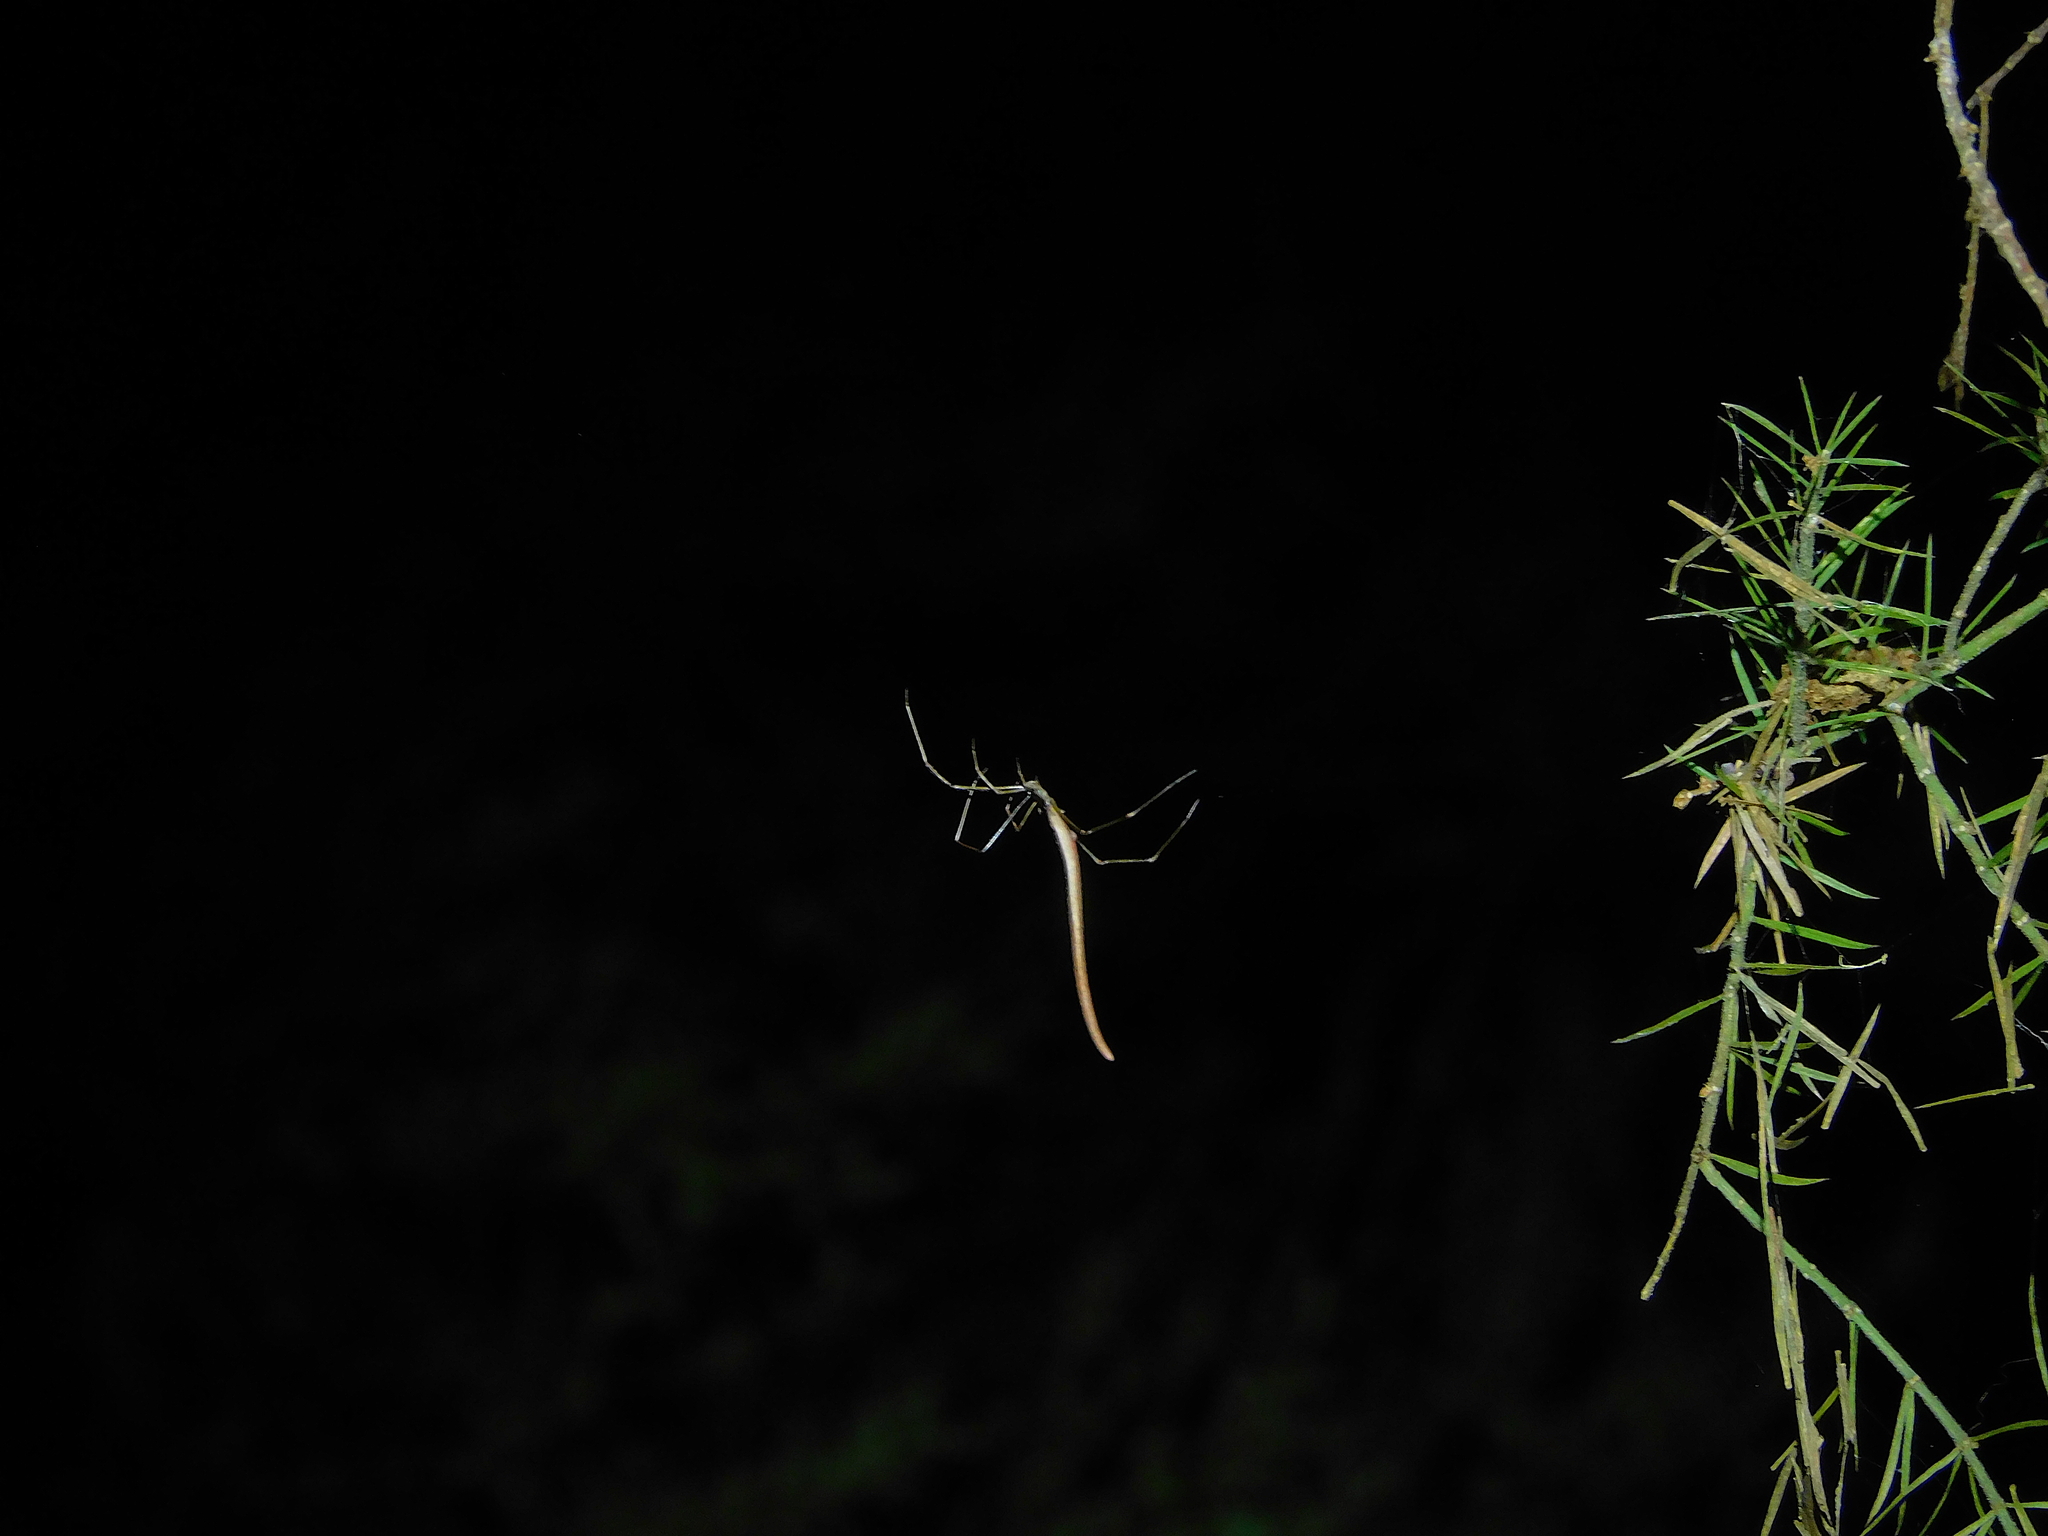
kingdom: Animalia
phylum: Arthropoda
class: Arachnida
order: Araneae
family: Theridiidae
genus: Ariamnes
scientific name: Ariamnes colubrinus
